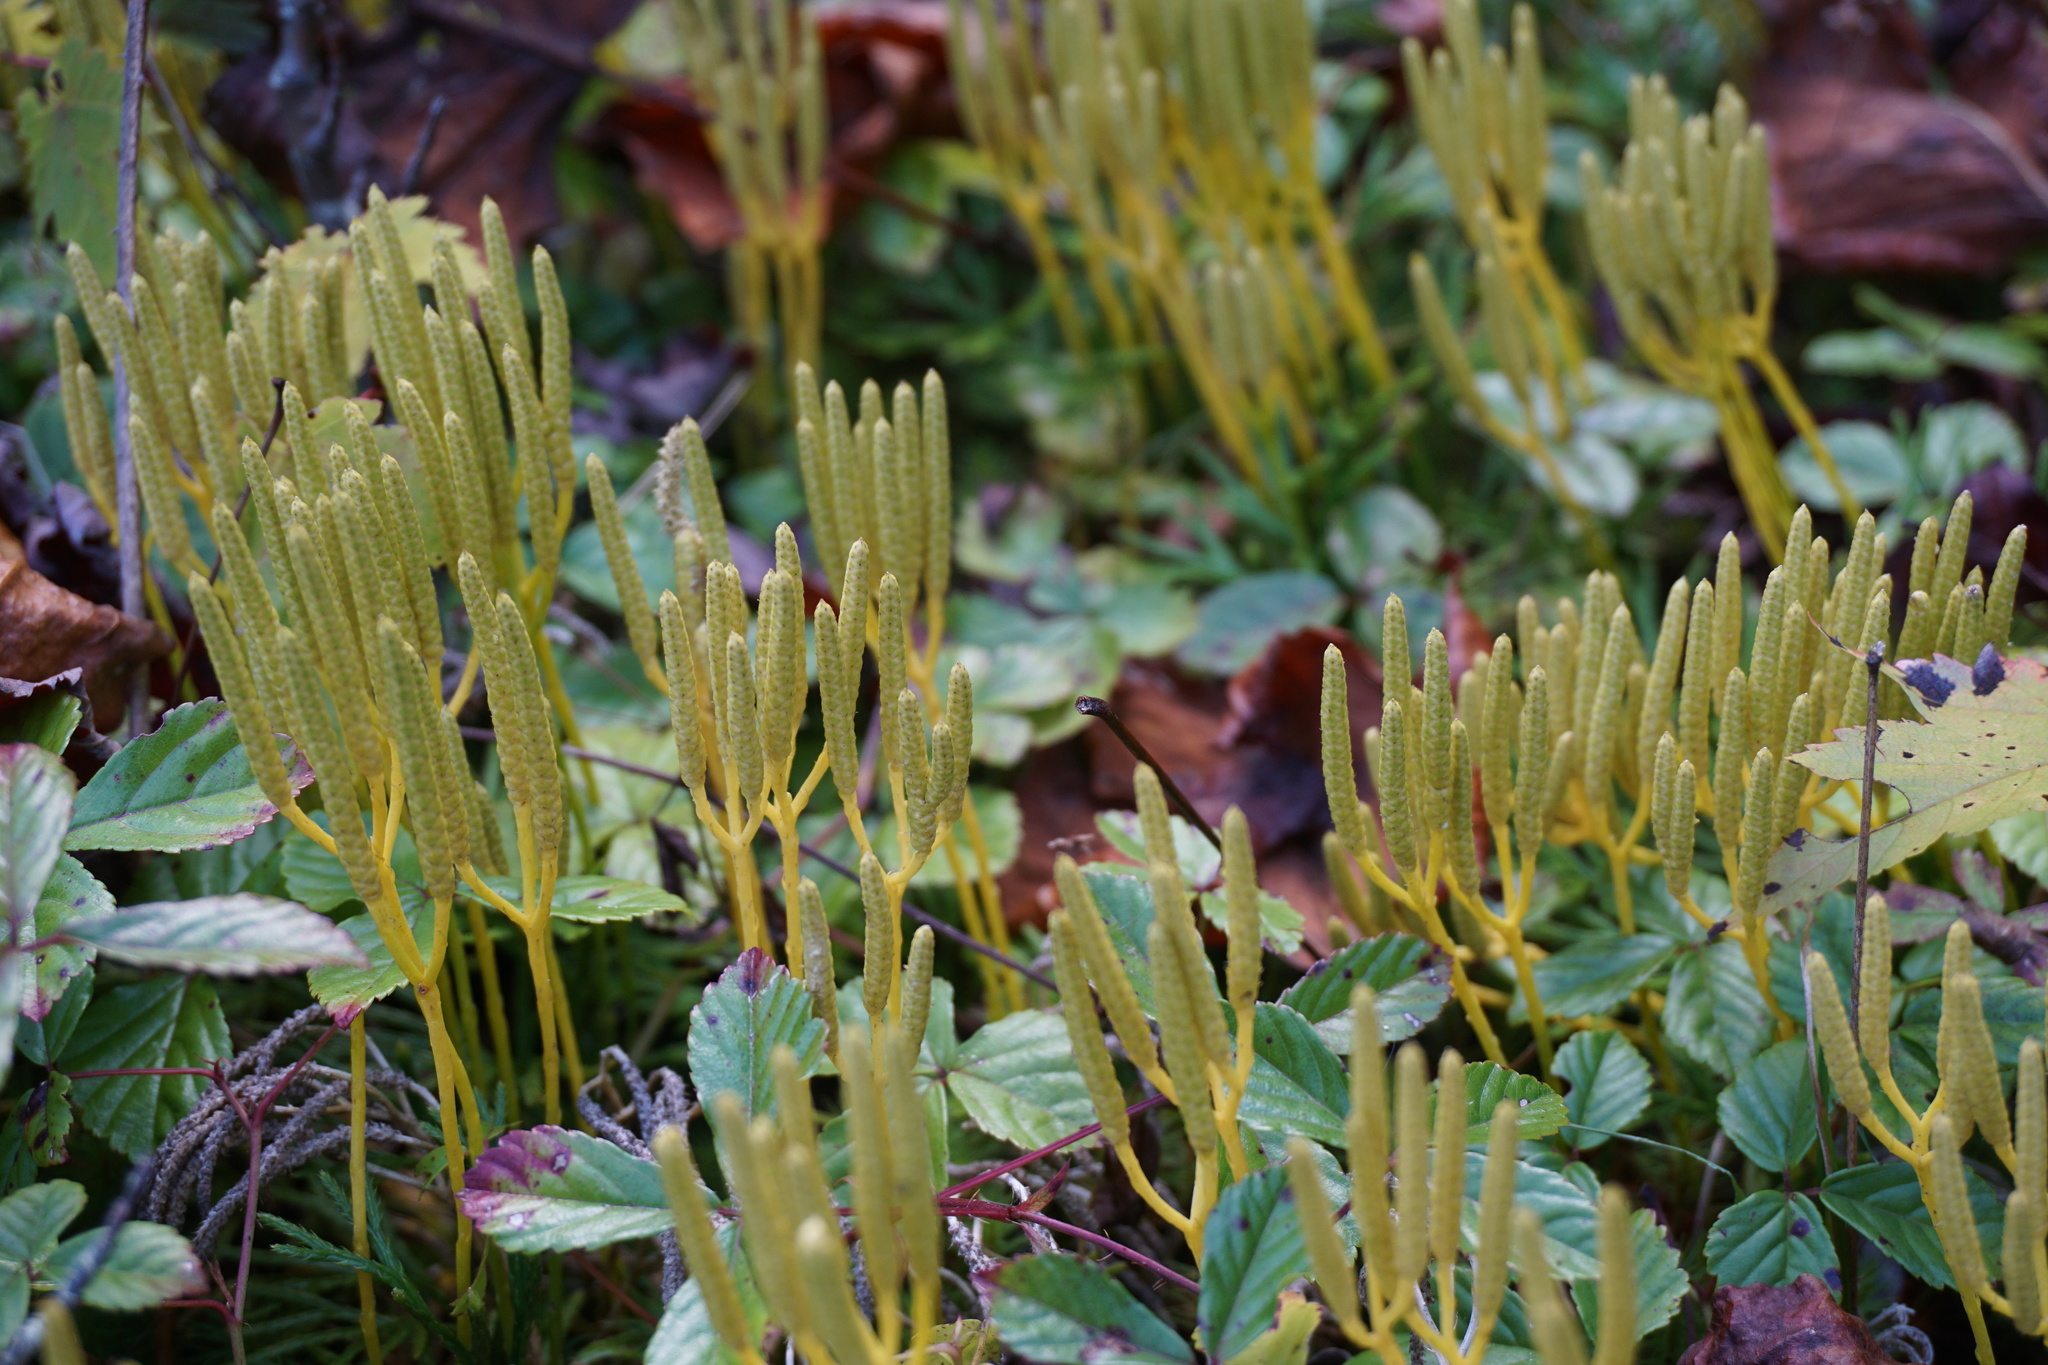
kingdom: Plantae
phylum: Tracheophyta
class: Lycopodiopsida
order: Lycopodiales
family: Lycopodiaceae
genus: Diphasiastrum
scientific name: Diphasiastrum digitatum
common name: Southern running-pine
